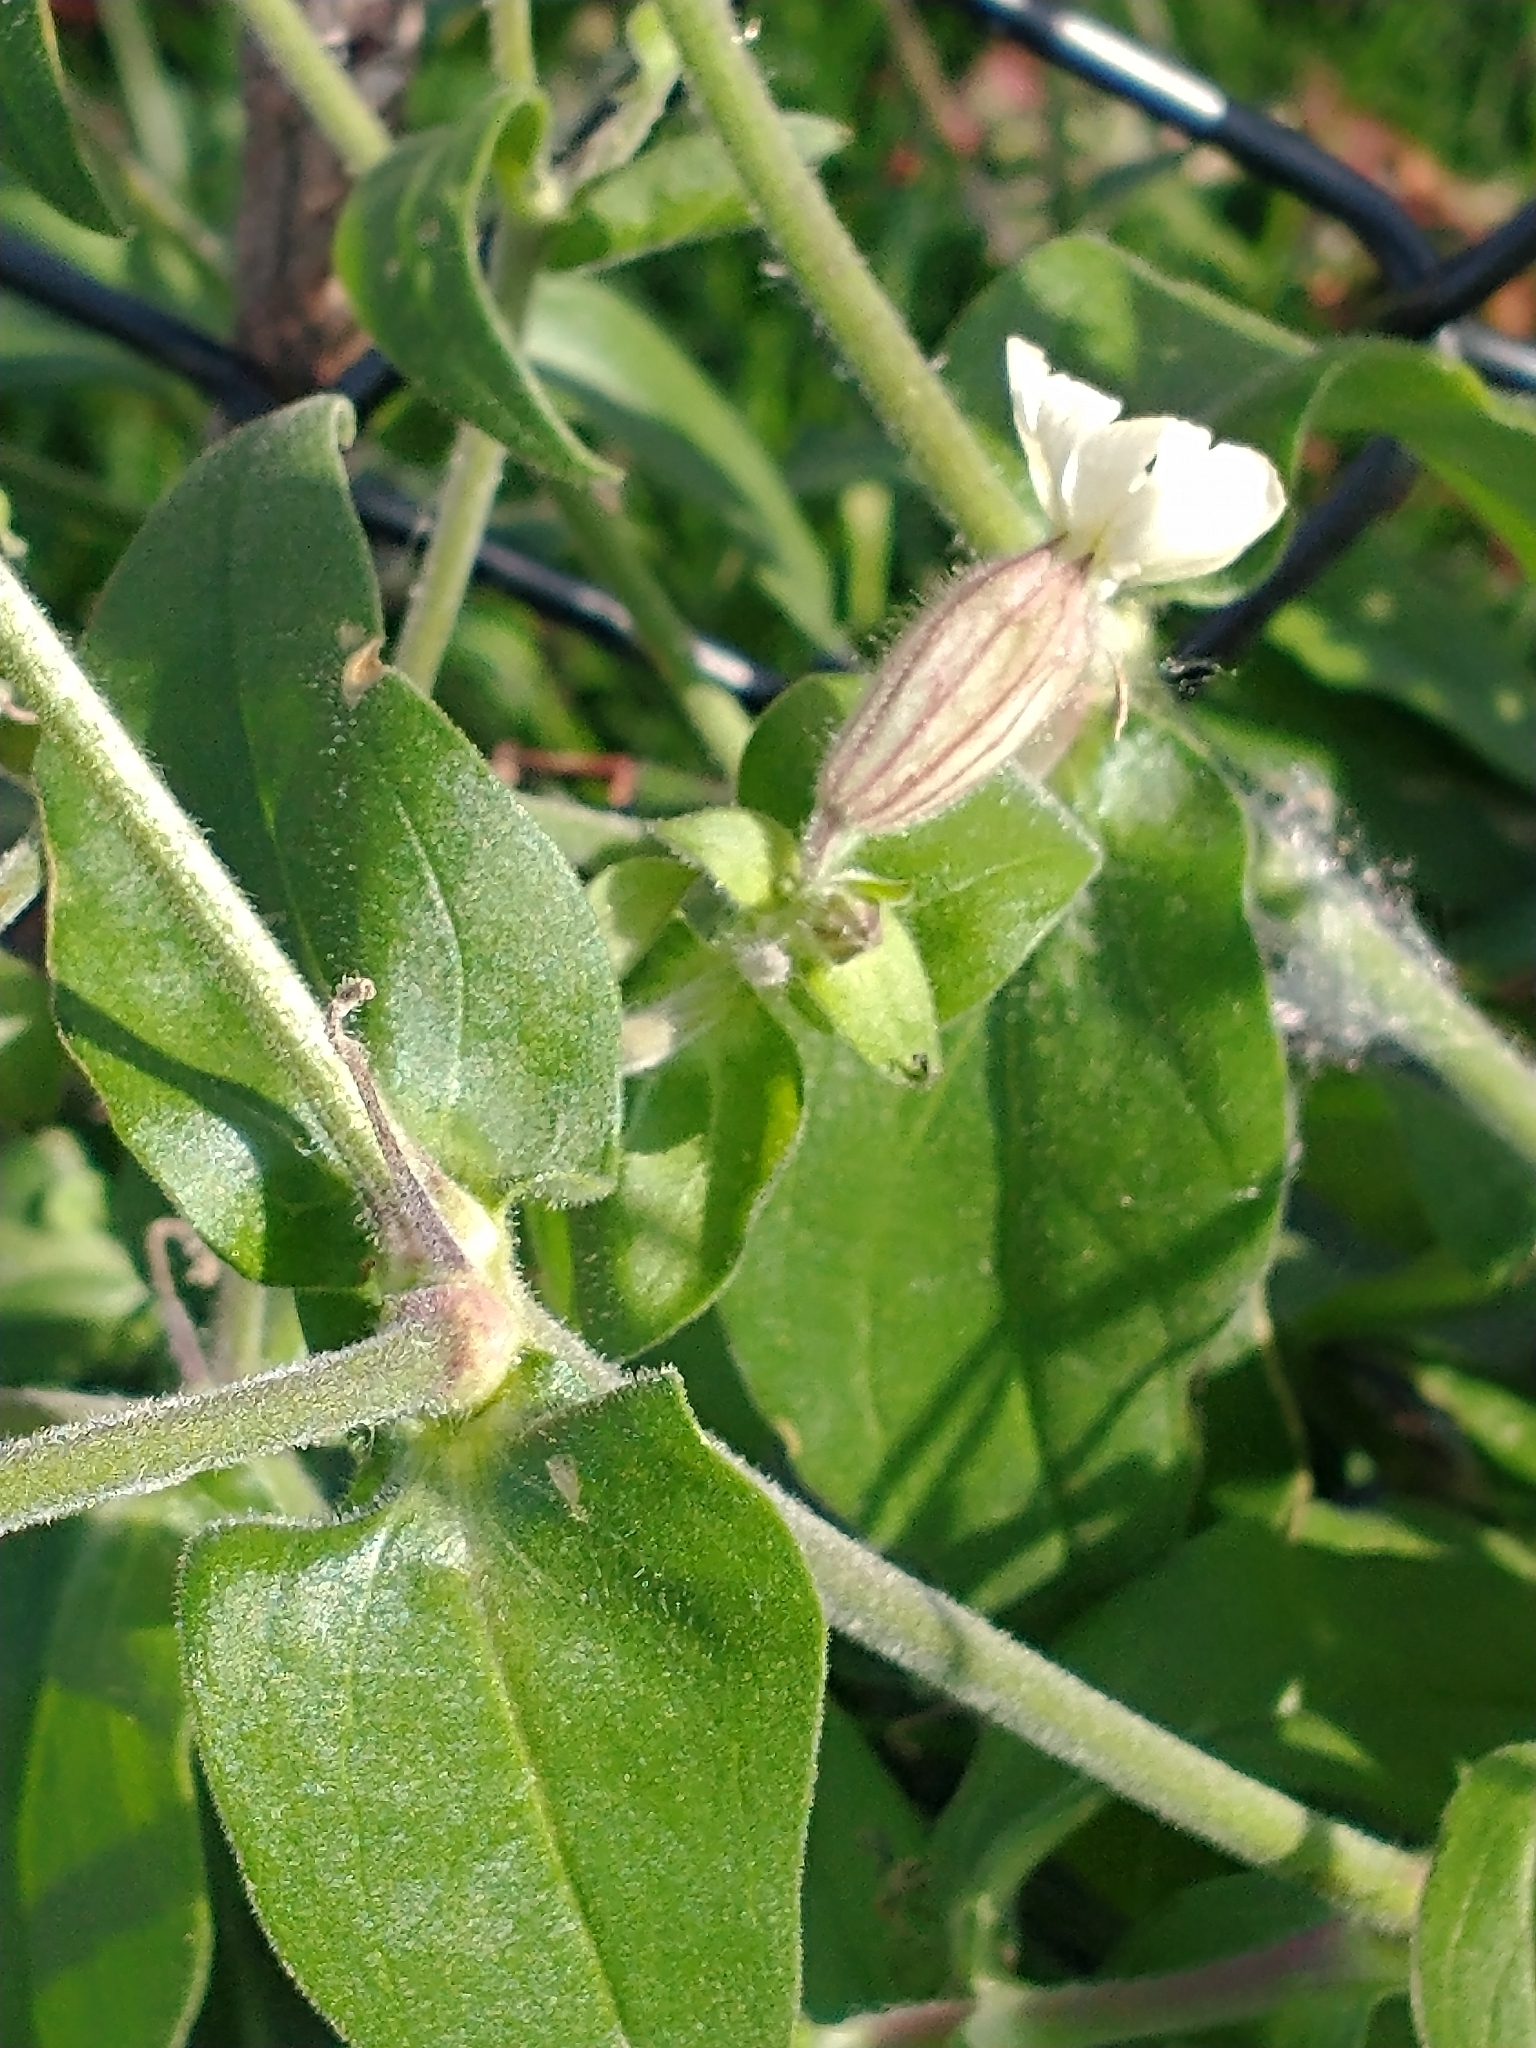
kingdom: Plantae
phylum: Tracheophyta
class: Magnoliopsida
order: Caryophyllales
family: Caryophyllaceae
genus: Silene
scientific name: Silene latifolia
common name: White campion
